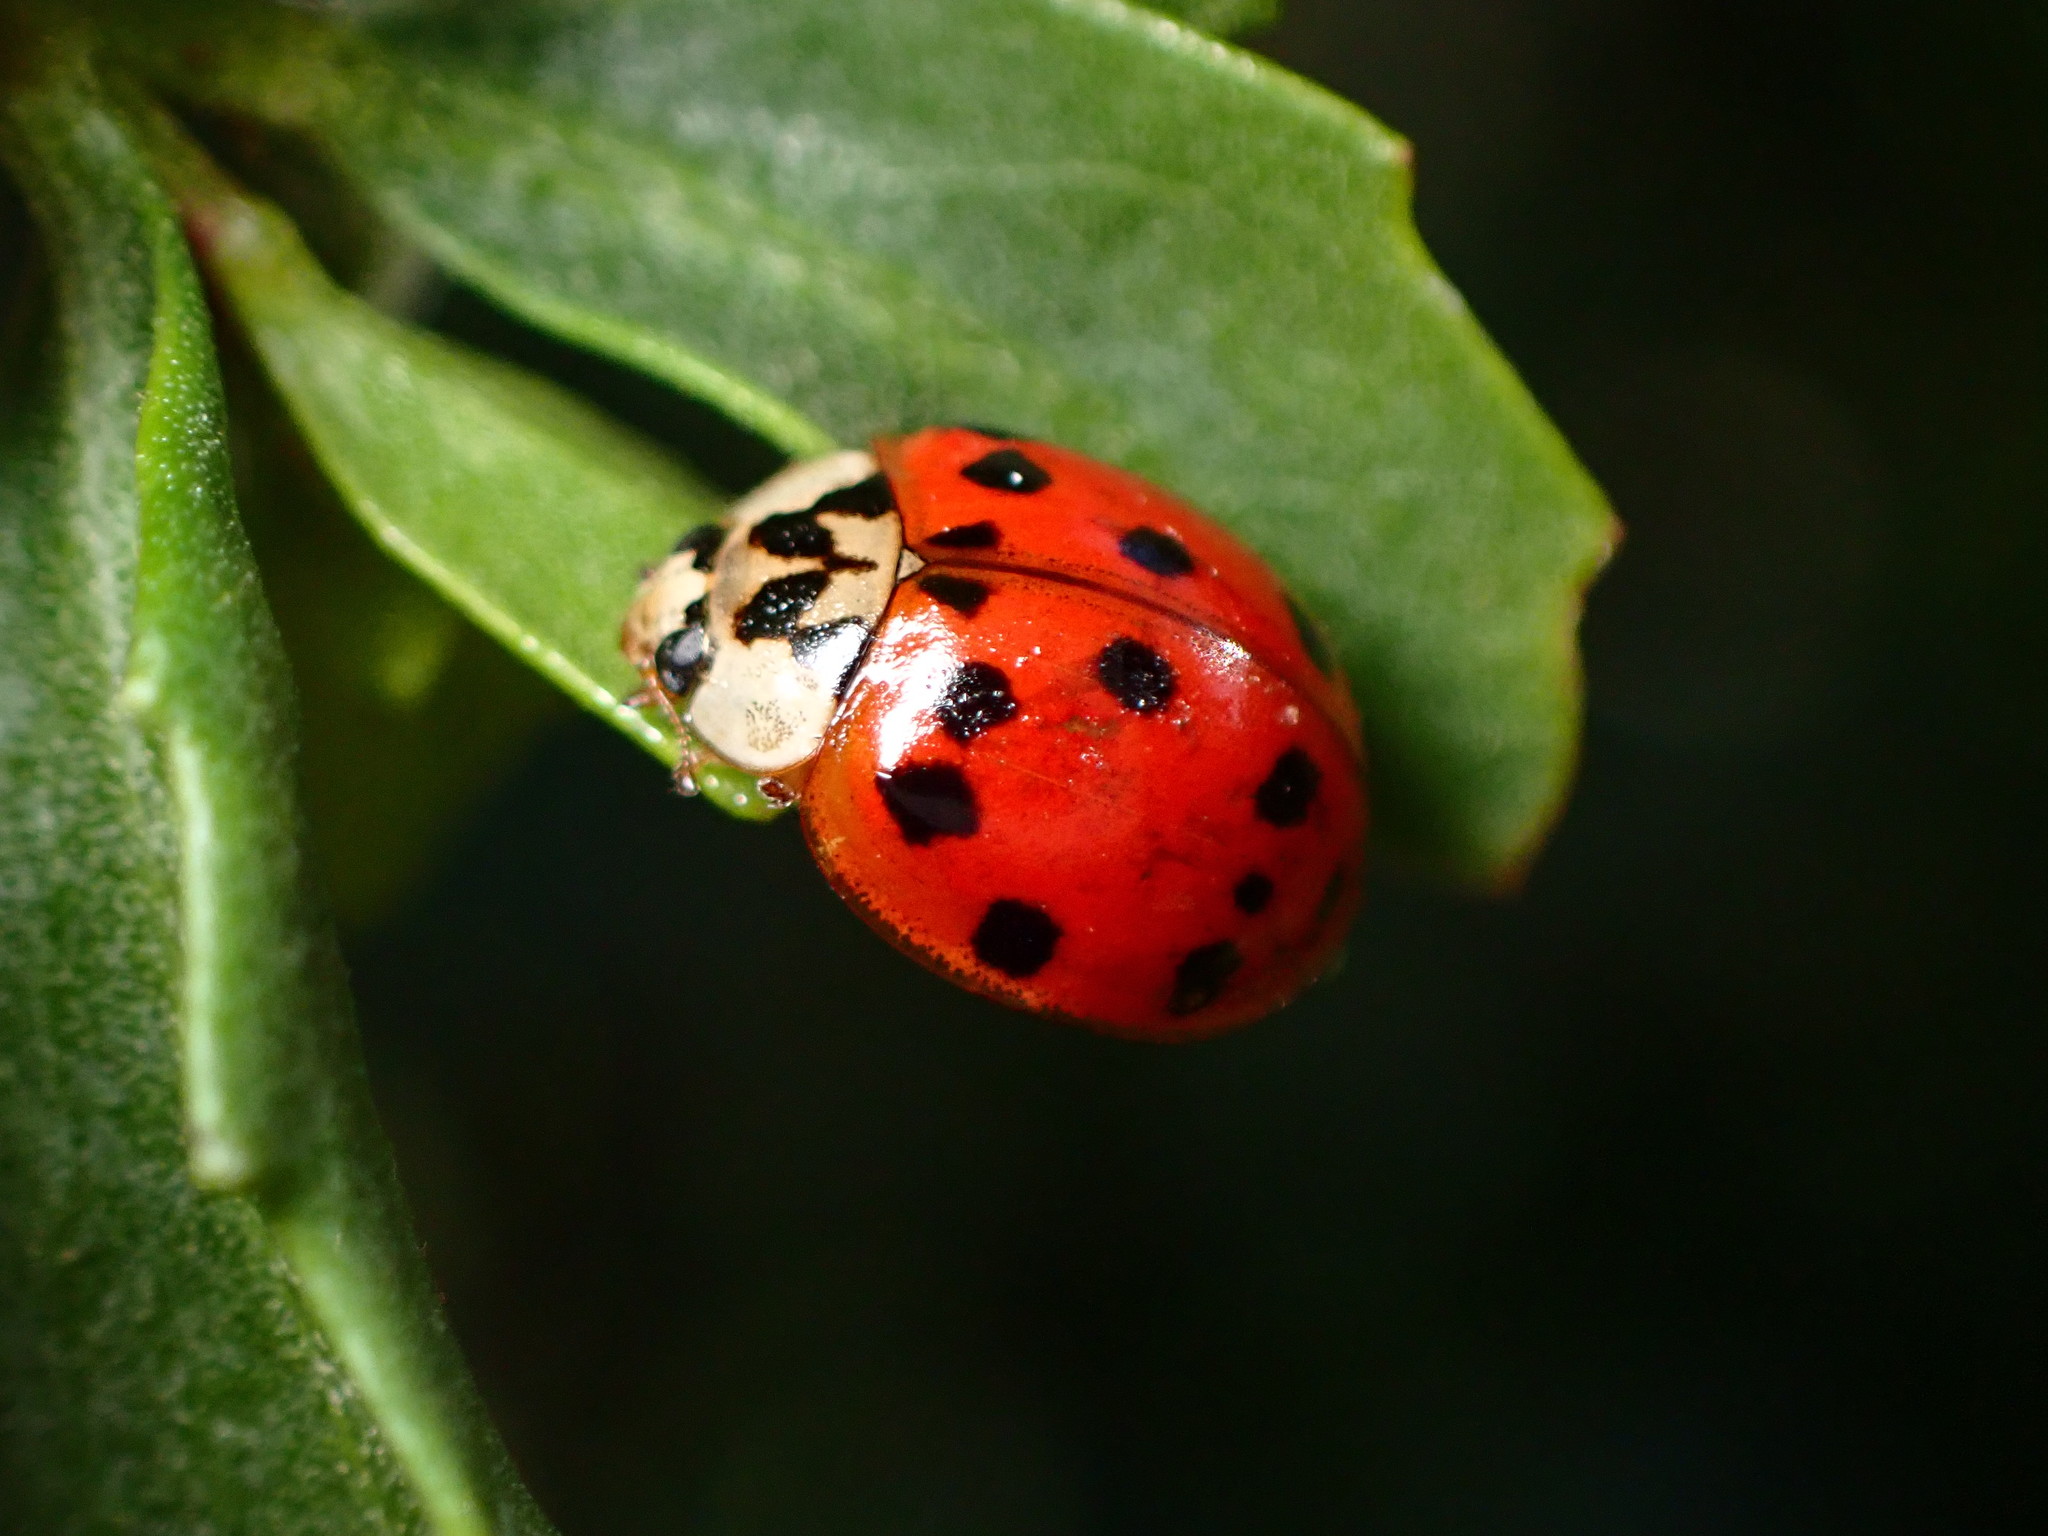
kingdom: Animalia
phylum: Arthropoda
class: Insecta
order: Coleoptera
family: Coccinellidae
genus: Harmonia
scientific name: Harmonia axyridis
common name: Harlequin ladybird
